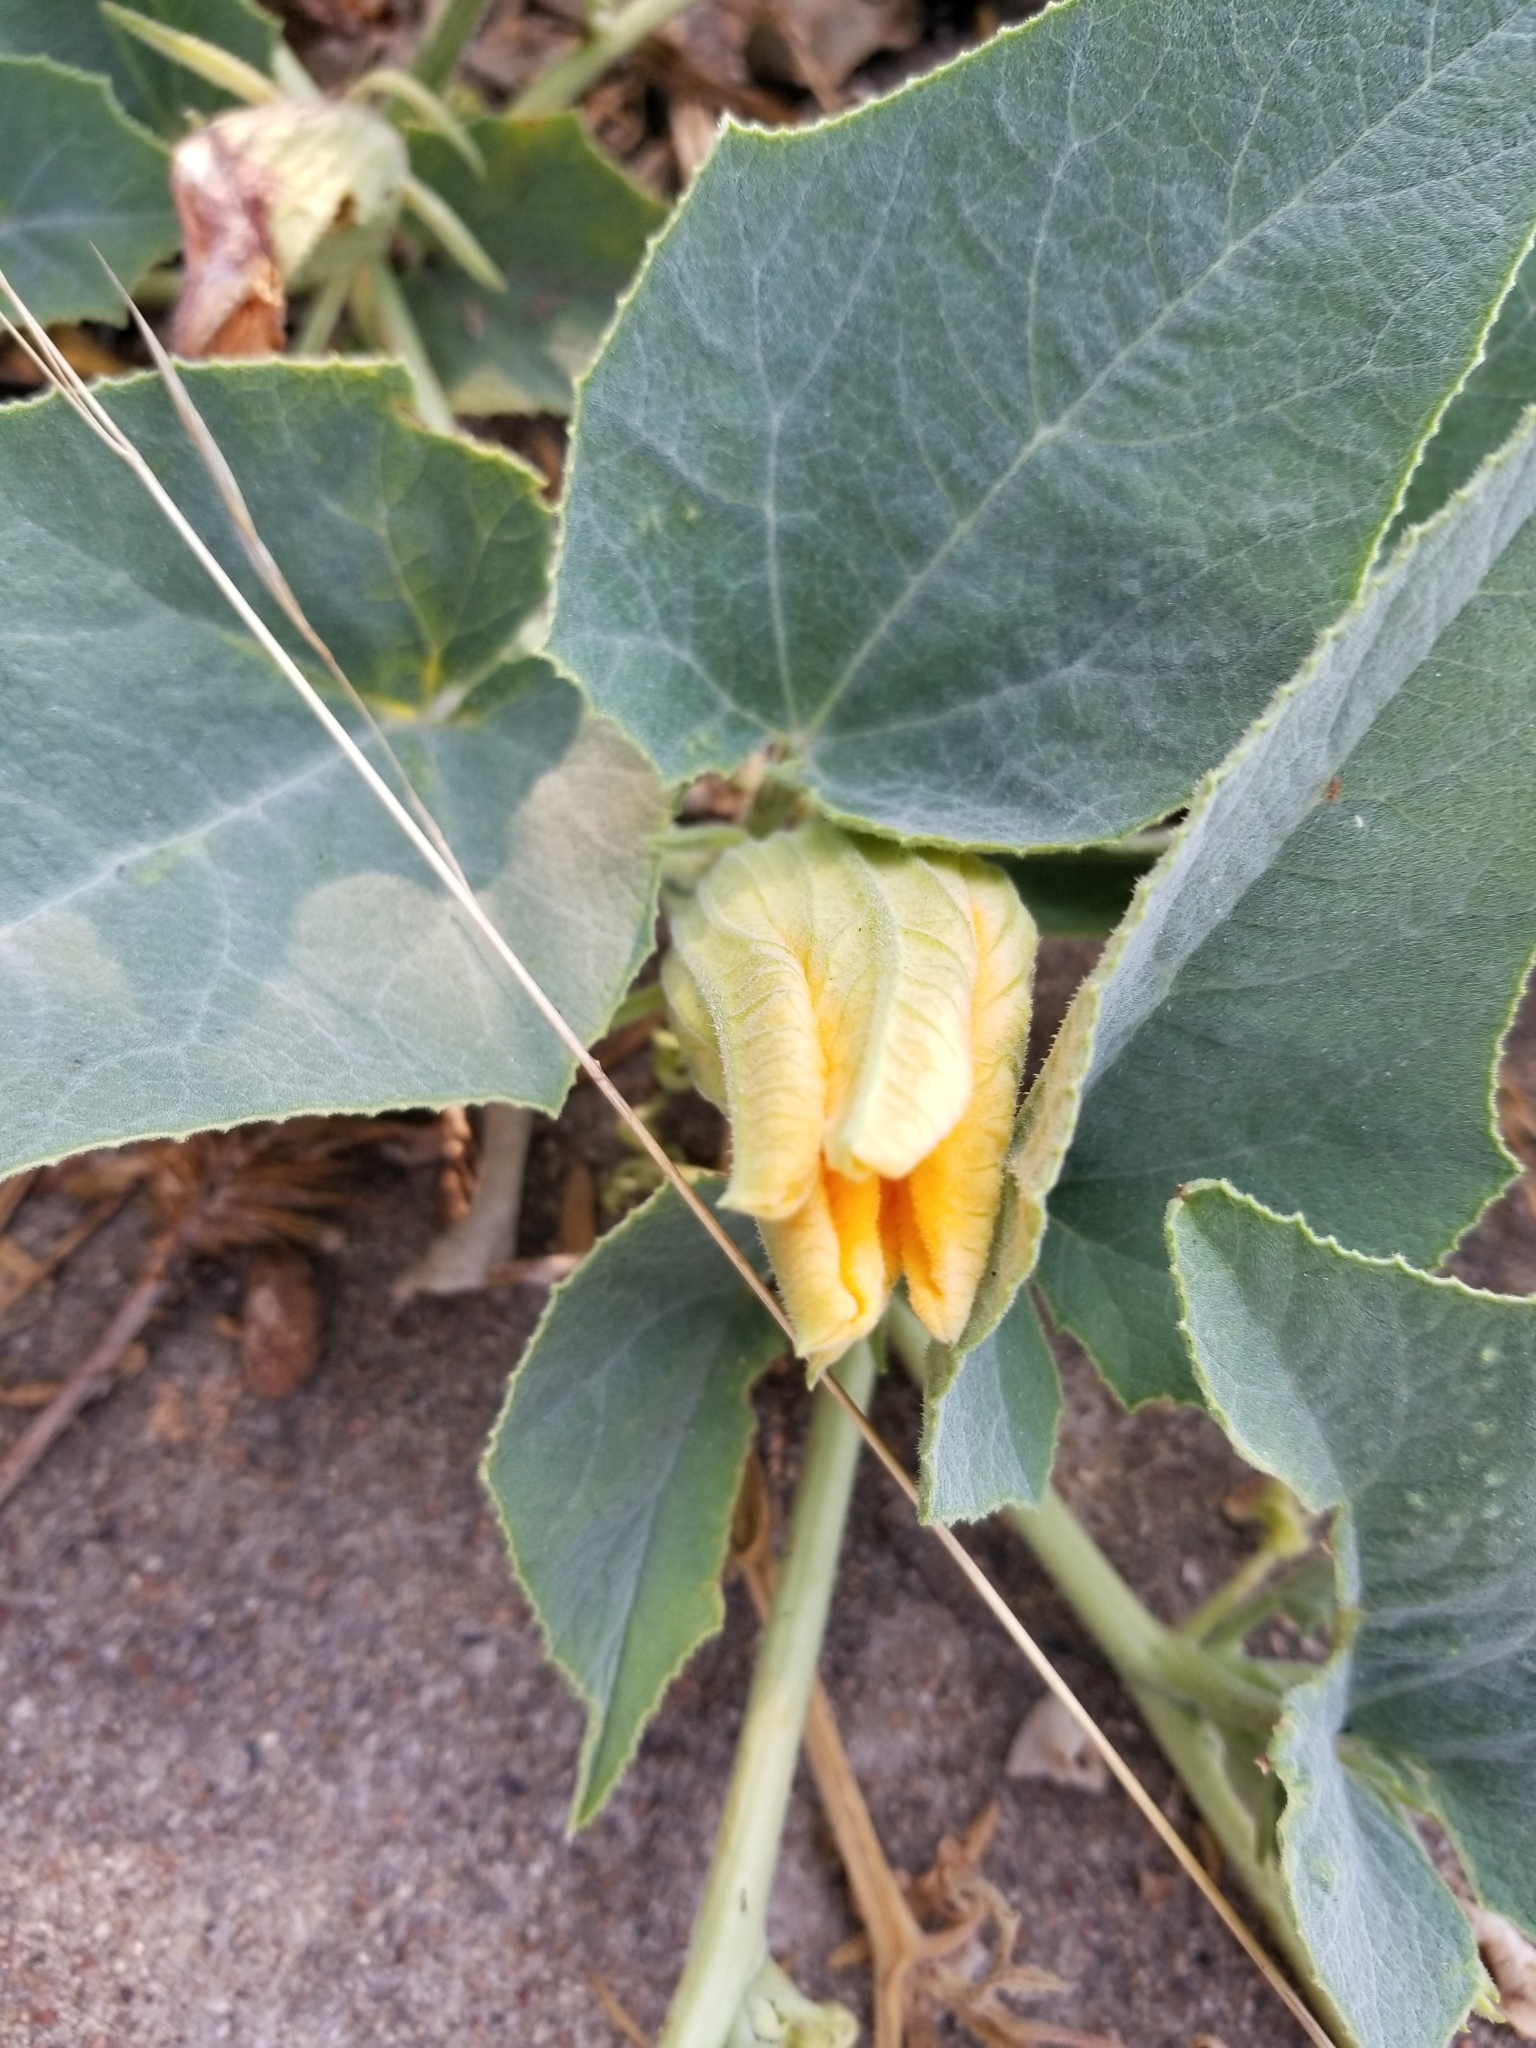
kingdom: Plantae
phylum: Tracheophyta
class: Magnoliopsida
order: Cucurbitales
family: Cucurbitaceae
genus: Cucurbita
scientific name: Cucurbita foetidissima
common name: Buffalo gourd
